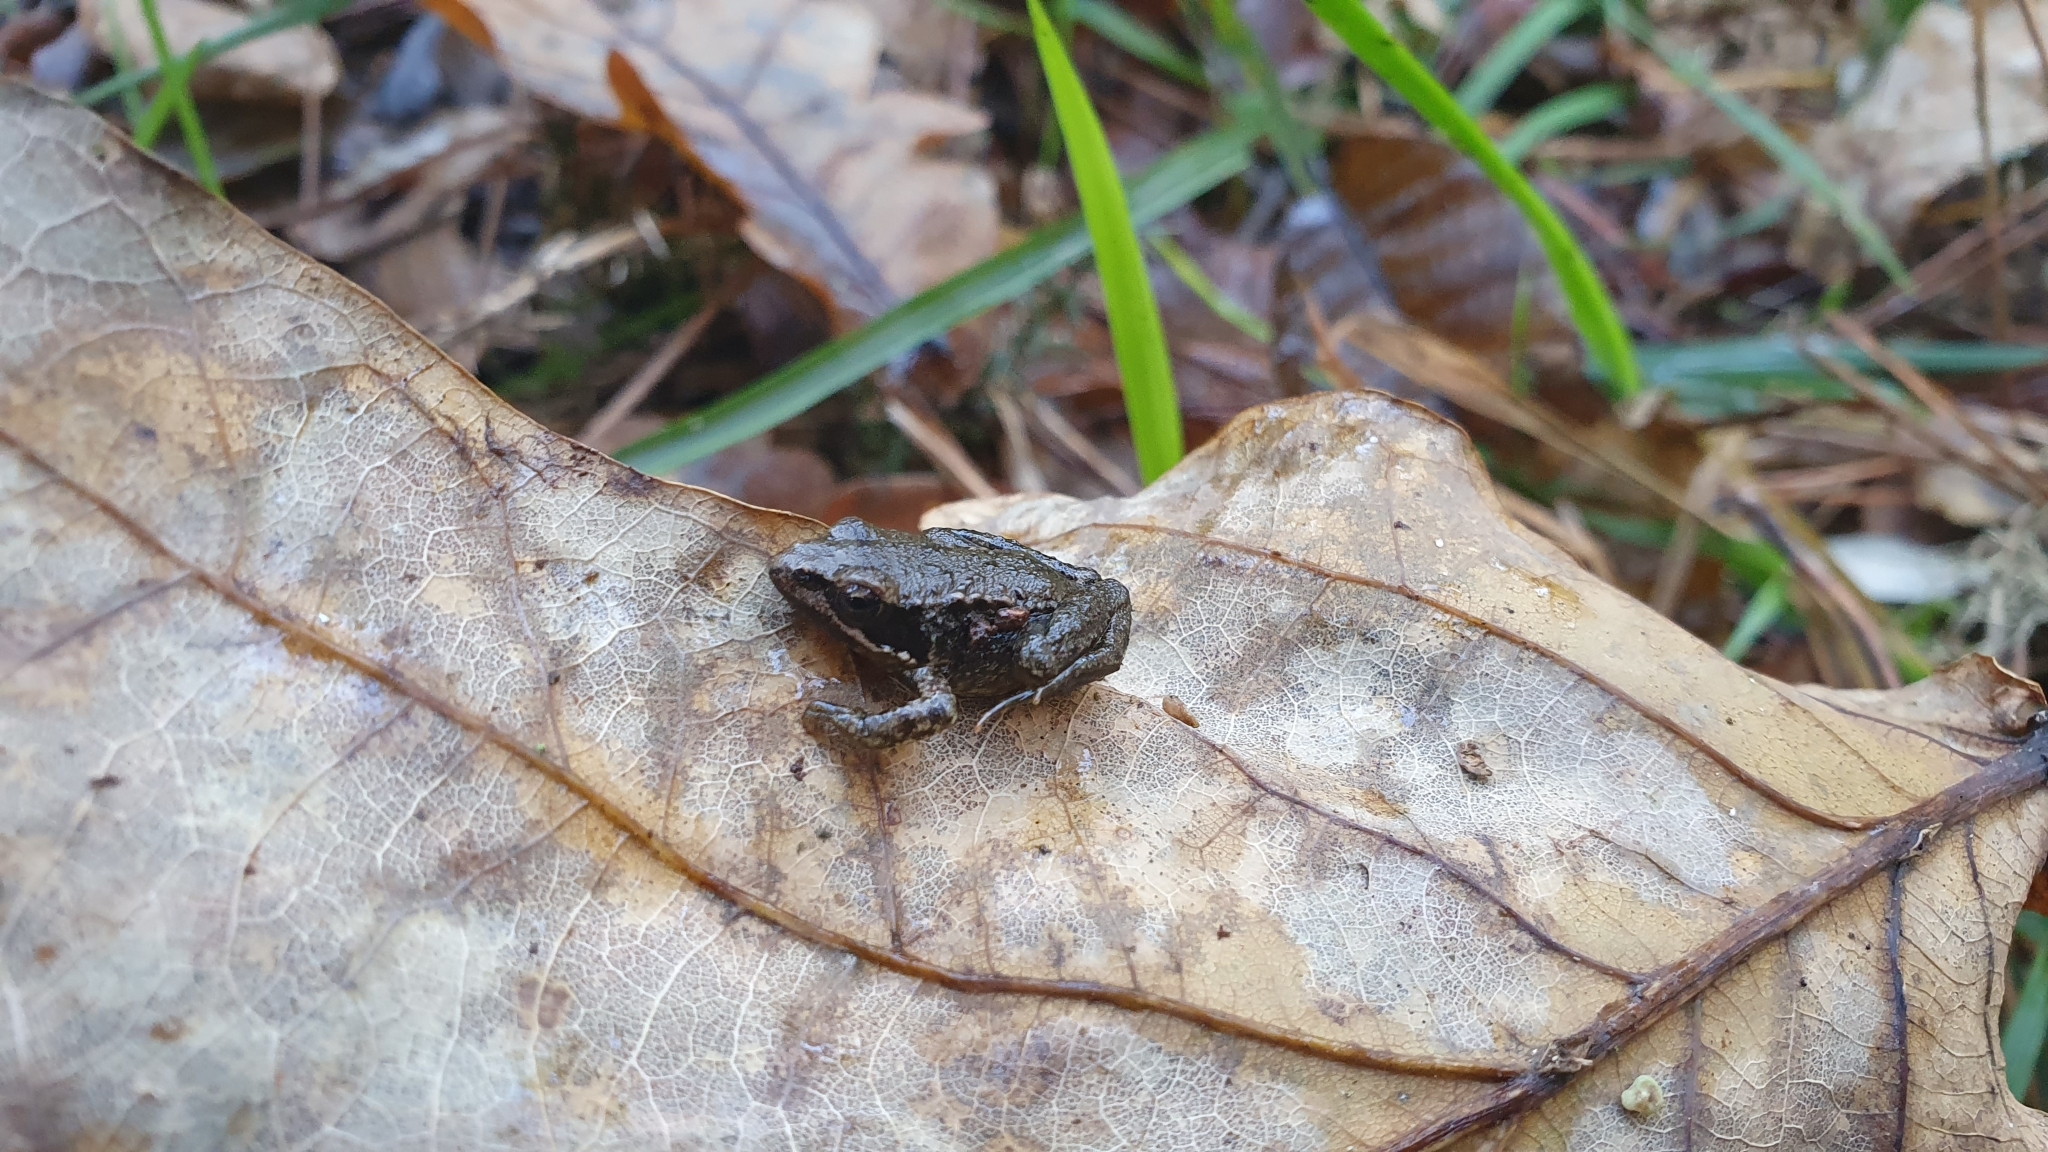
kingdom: Animalia
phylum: Chordata
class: Amphibia
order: Anura
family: Ranidae
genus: Rana
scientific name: Rana iberica
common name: Iberian frog
